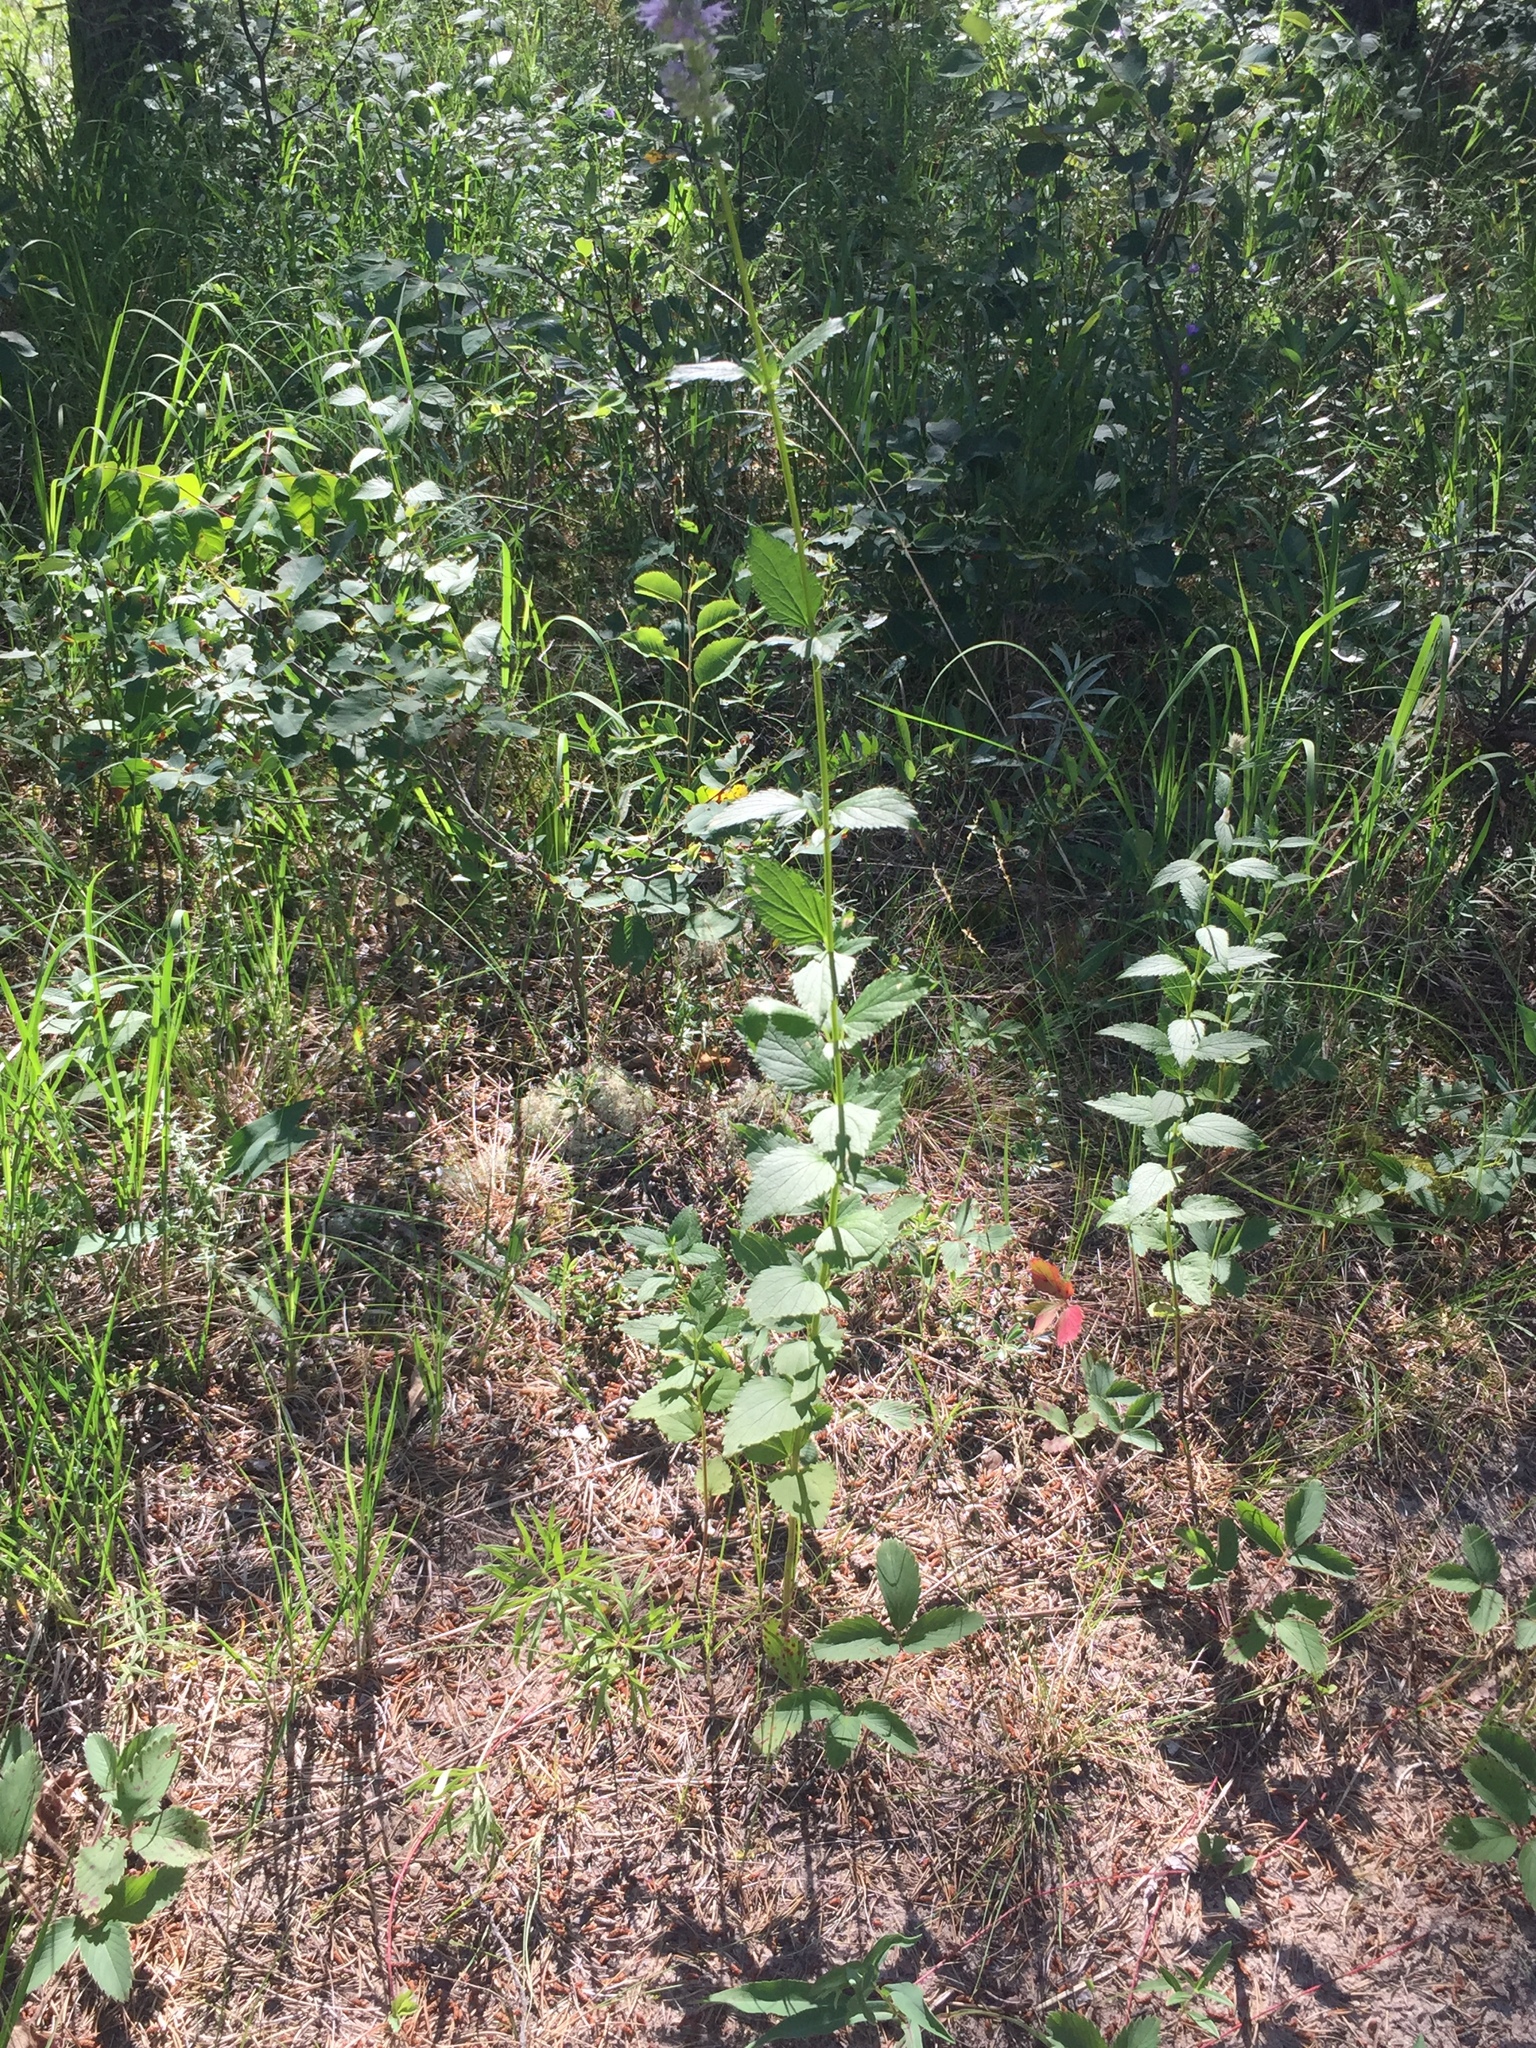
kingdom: Plantae
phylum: Tracheophyta
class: Magnoliopsida
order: Lamiales
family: Lamiaceae
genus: Agastache
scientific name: Agastache foeniculum
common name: Anise hyssop
